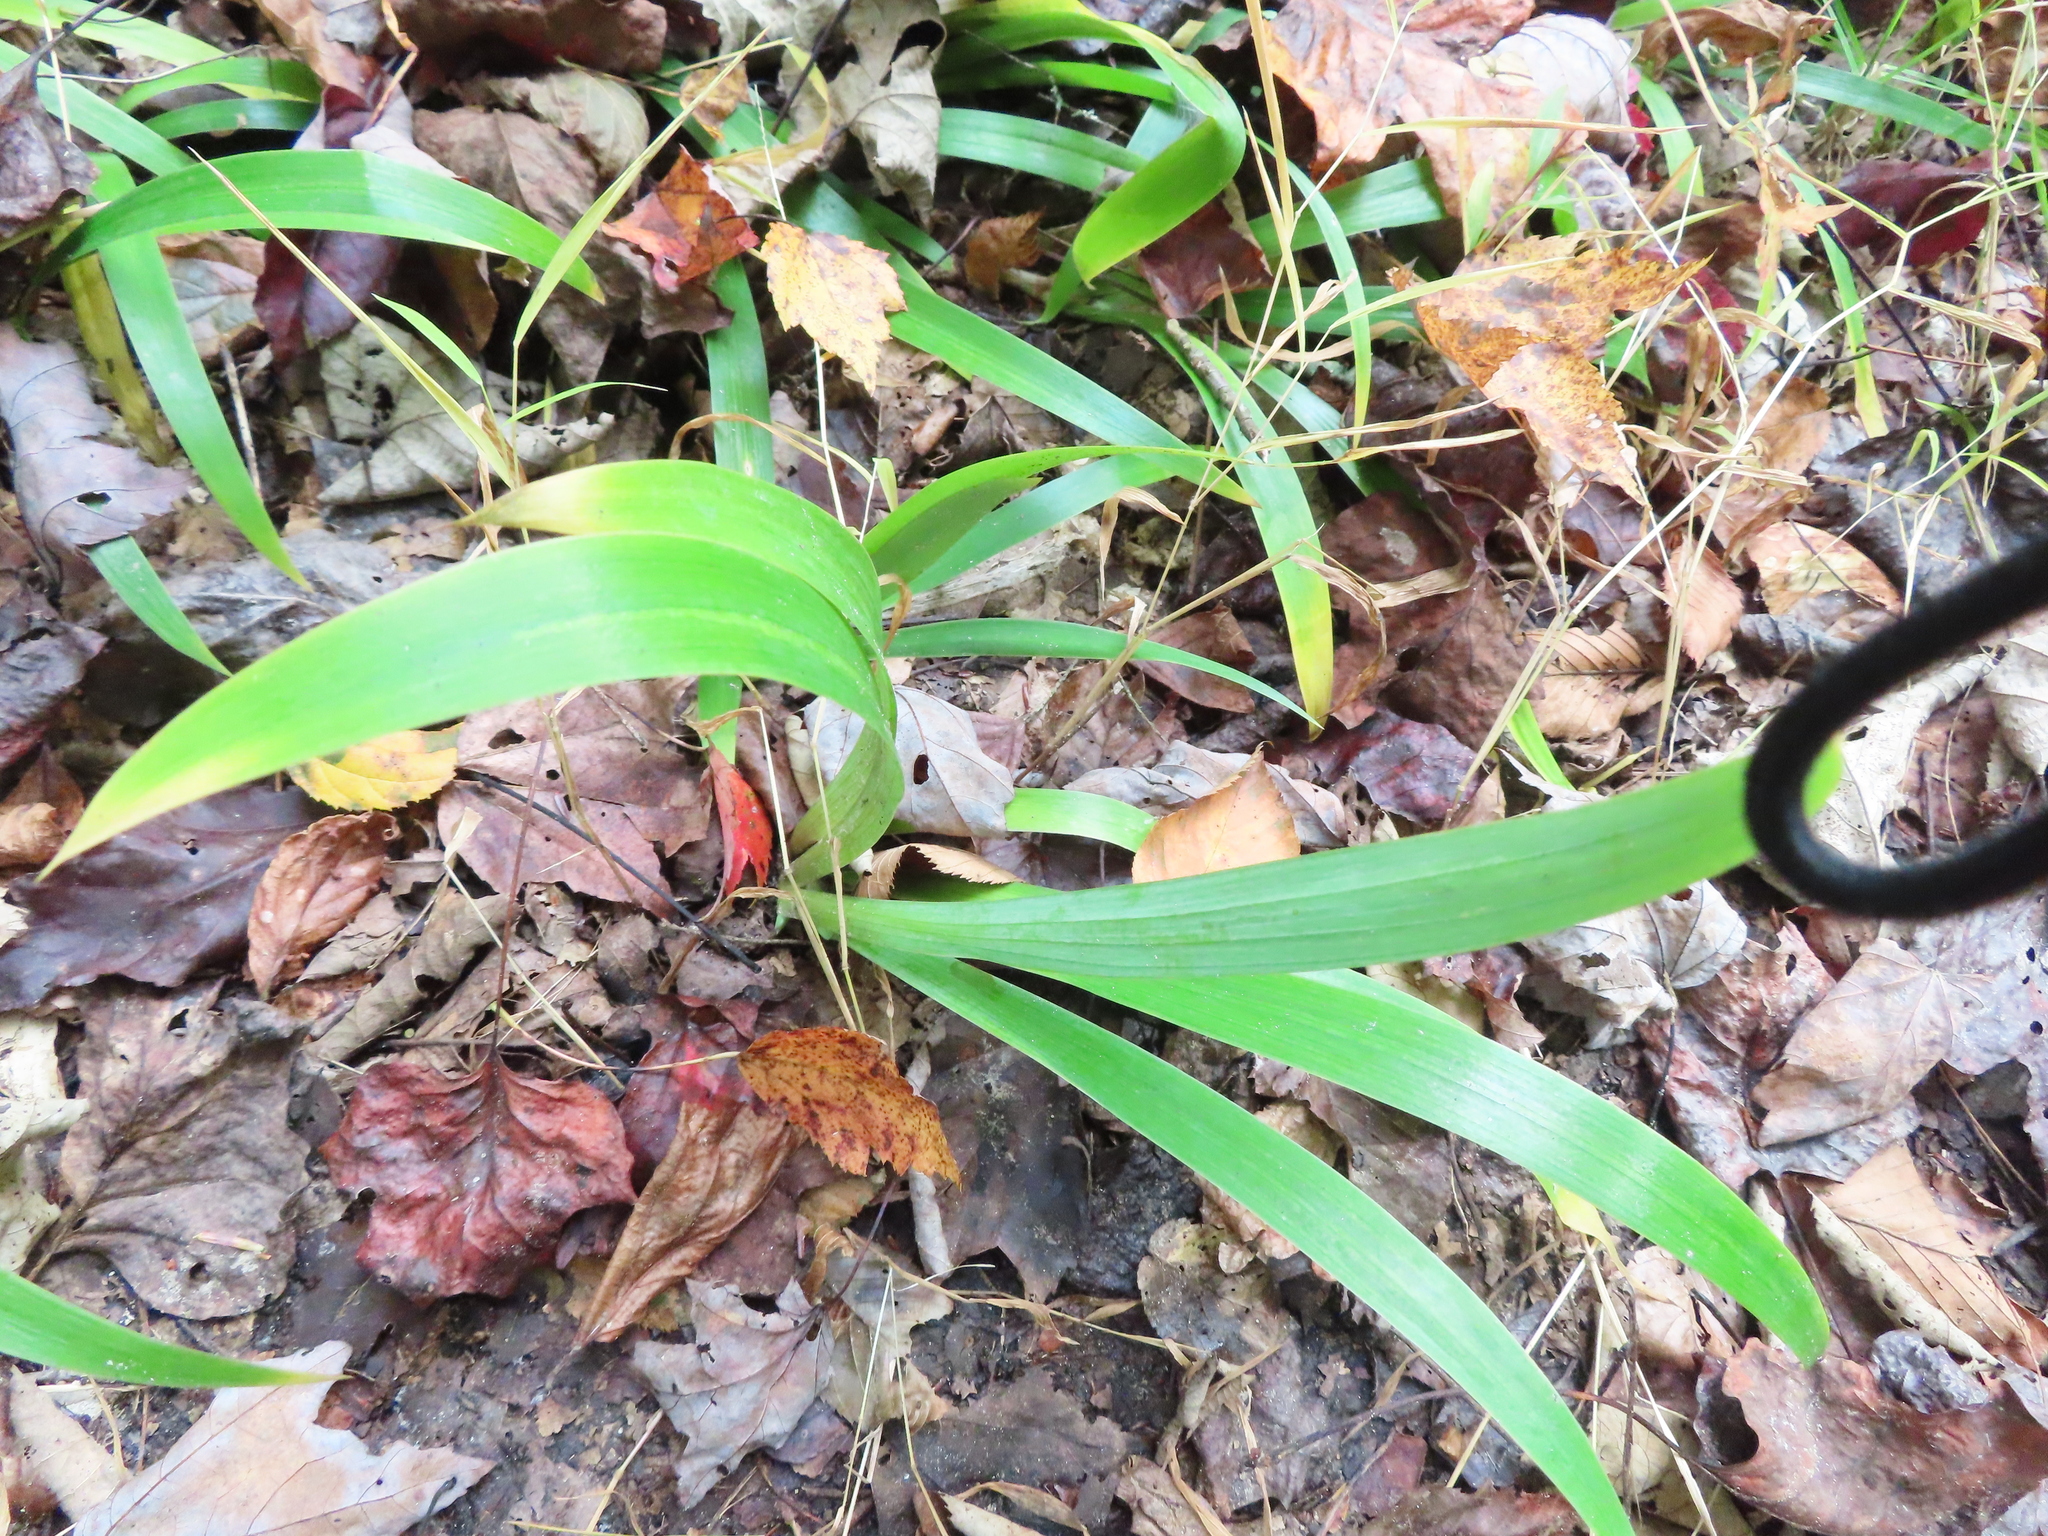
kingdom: Plantae
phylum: Tracheophyta
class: Liliopsida
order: Asparagales
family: Iridaceae
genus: Iris
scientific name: Iris cristata
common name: Crested iris
